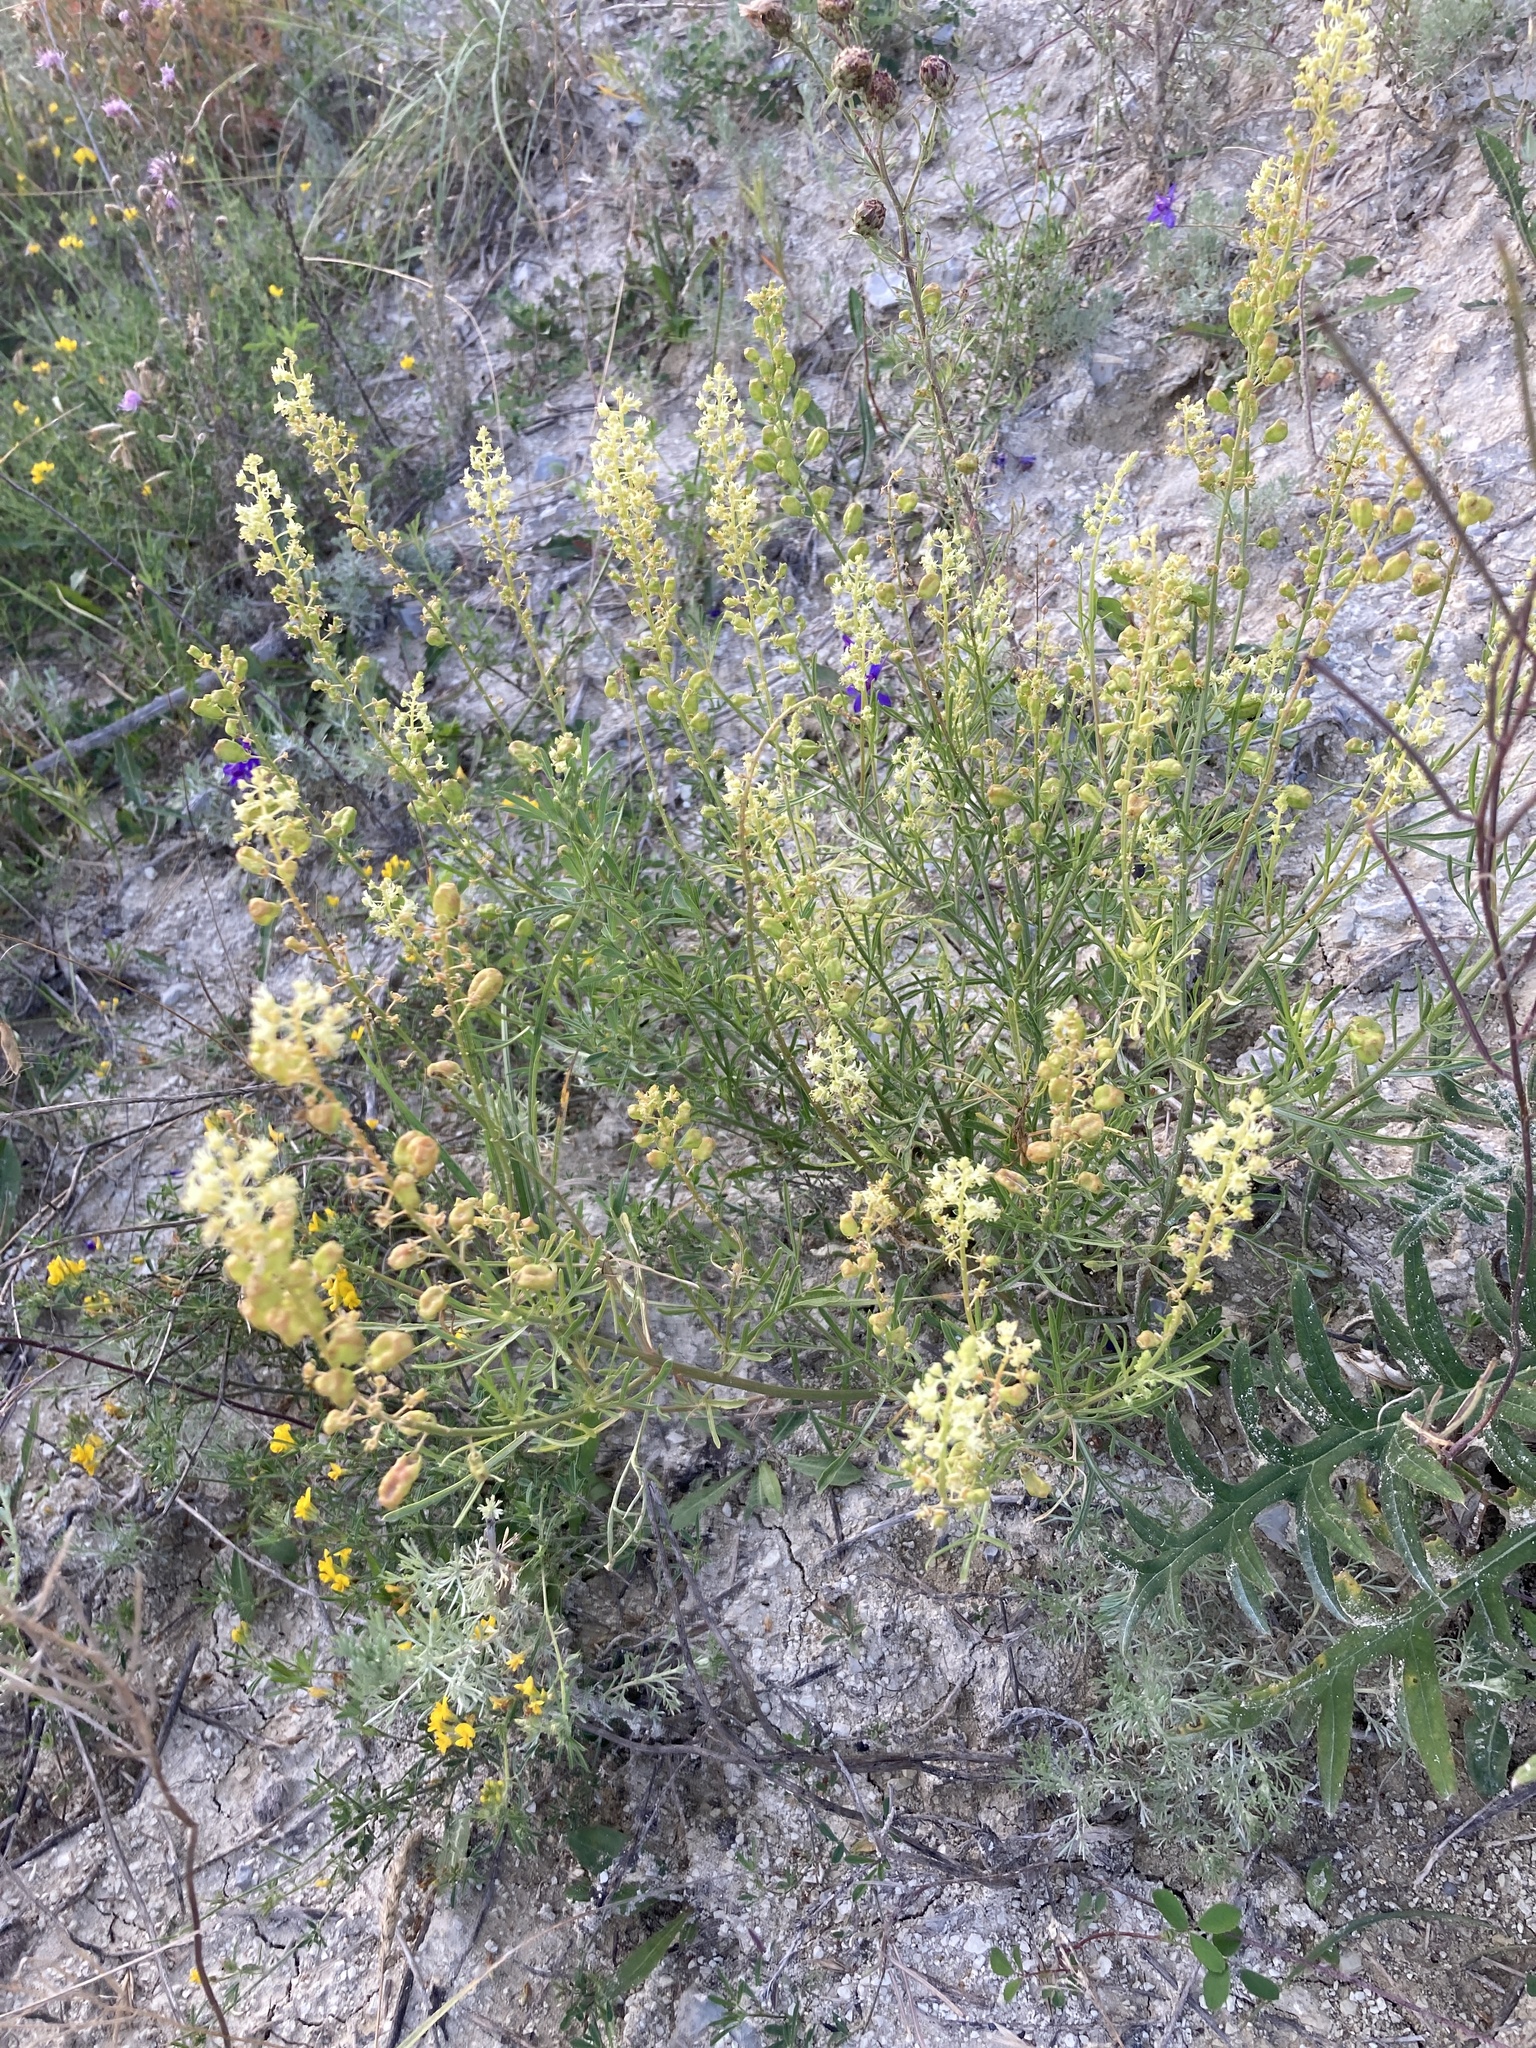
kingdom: Plantae
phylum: Tracheophyta
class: Magnoliopsida
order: Brassicales
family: Resedaceae
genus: Reseda
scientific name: Reseda lutea
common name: Wild mignonette
